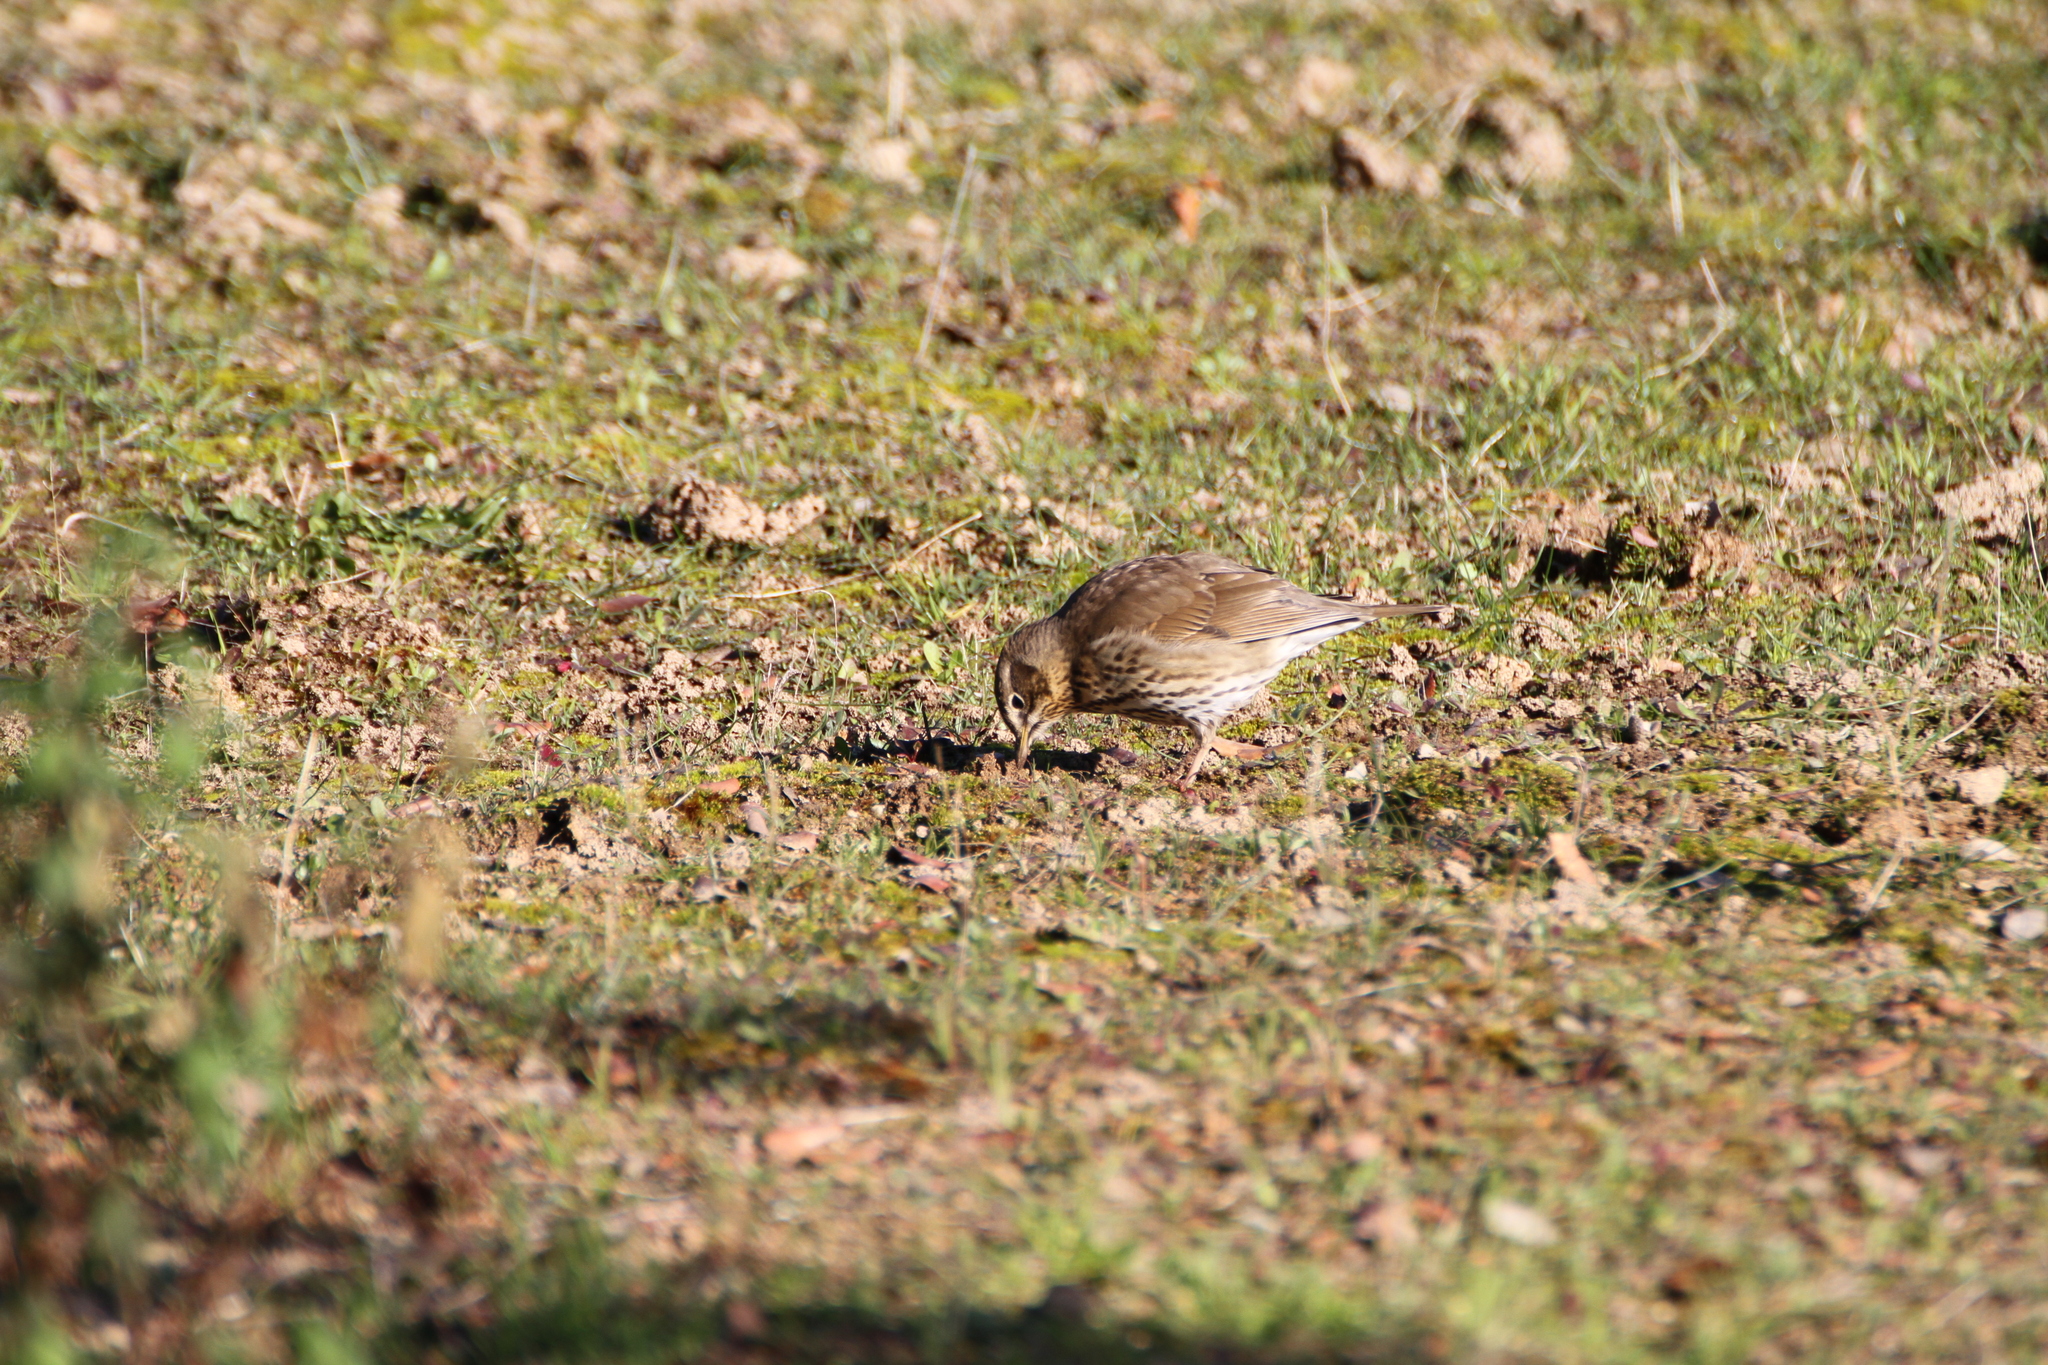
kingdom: Animalia
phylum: Chordata
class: Aves
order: Passeriformes
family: Turdidae
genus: Turdus
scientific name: Turdus philomelos
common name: Song thrush
